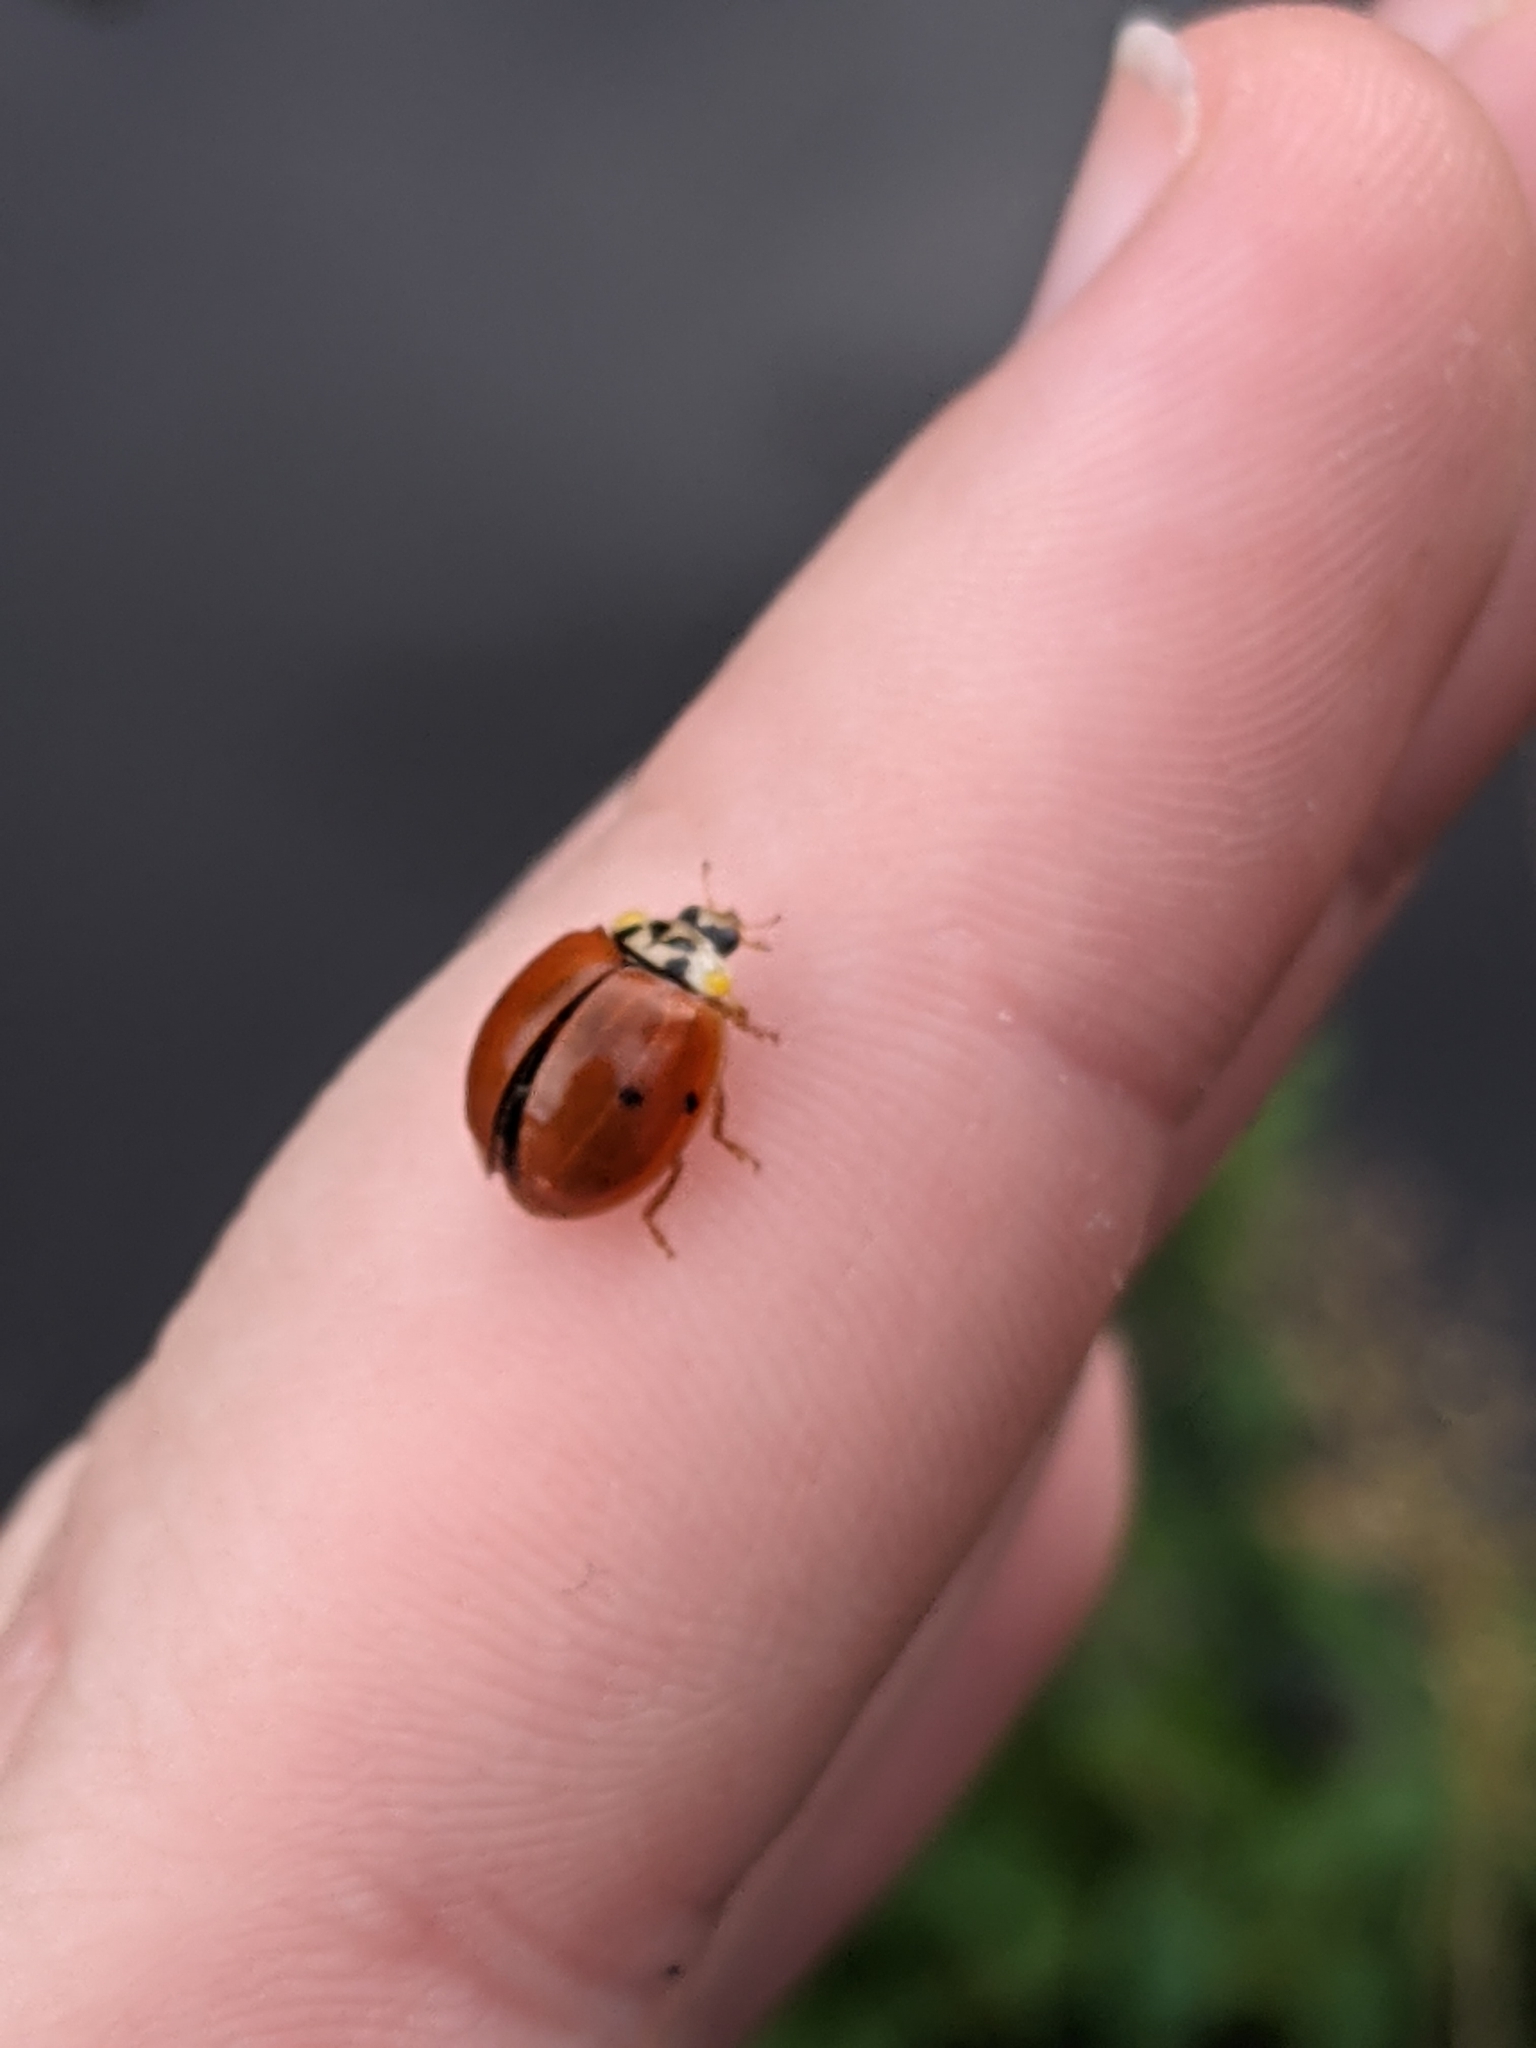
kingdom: Animalia
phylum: Arthropoda
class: Insecta
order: Coleoptera
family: Coccinellidae
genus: Harmonia
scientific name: Harmonia axyridis
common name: Harlequin ladybird
